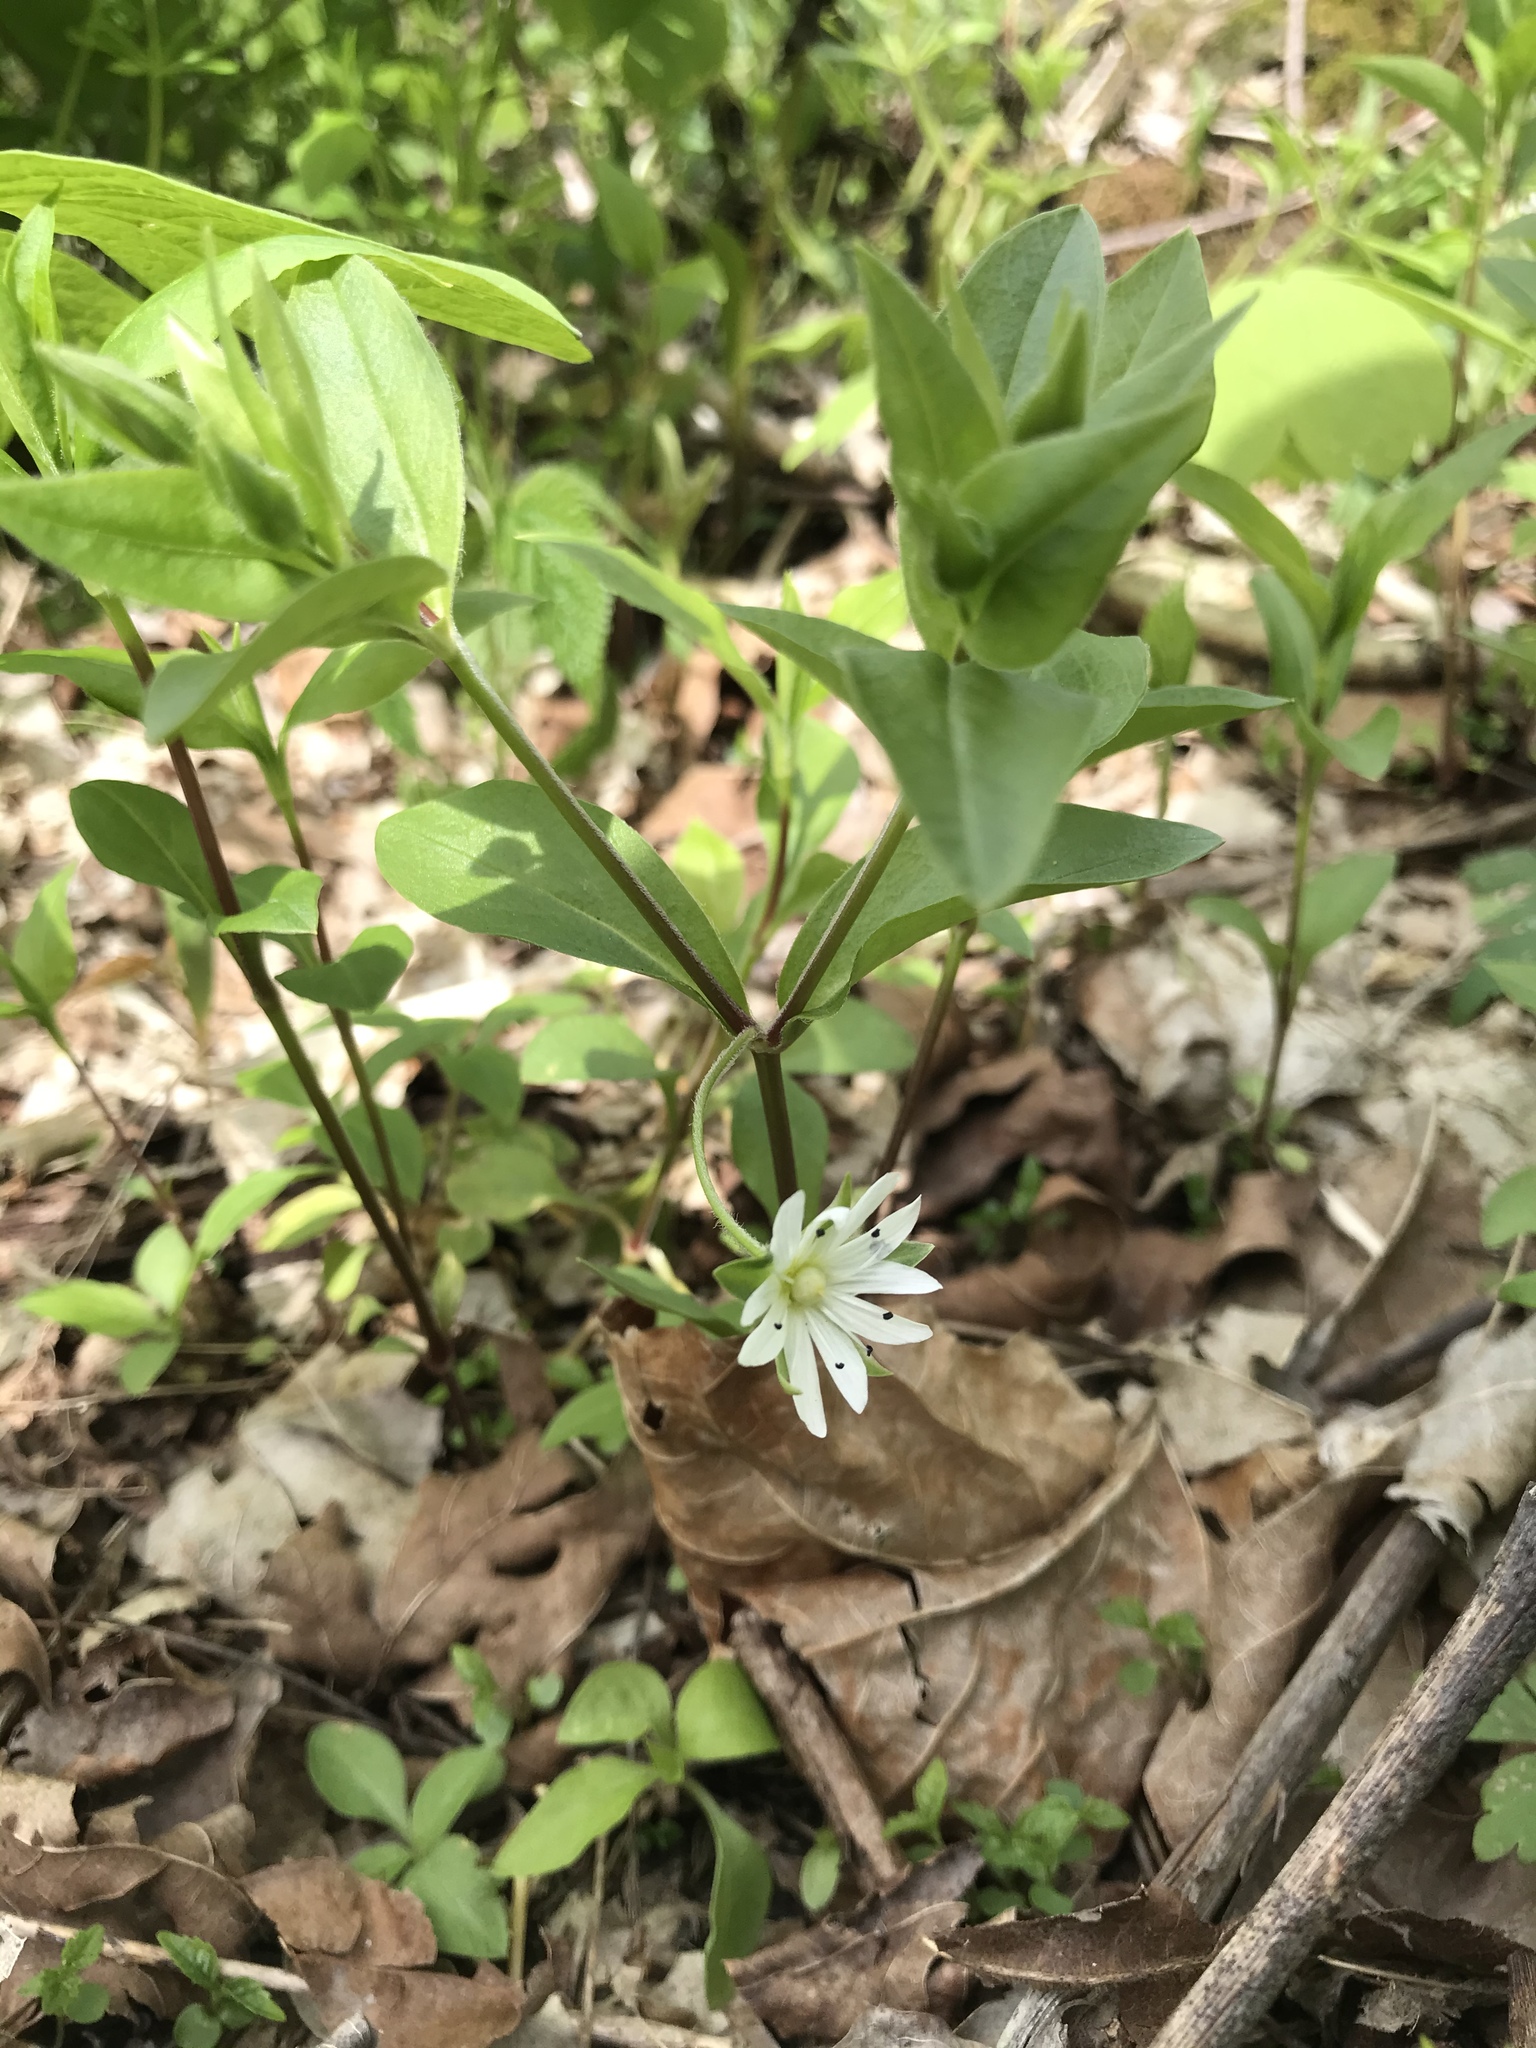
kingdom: Plantae
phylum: Tracheophyta
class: Magnoliopsida
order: Caryophyllales
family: Caryophyllaceae
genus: Stellaria
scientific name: Stellaria pubera
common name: Star chickweed
